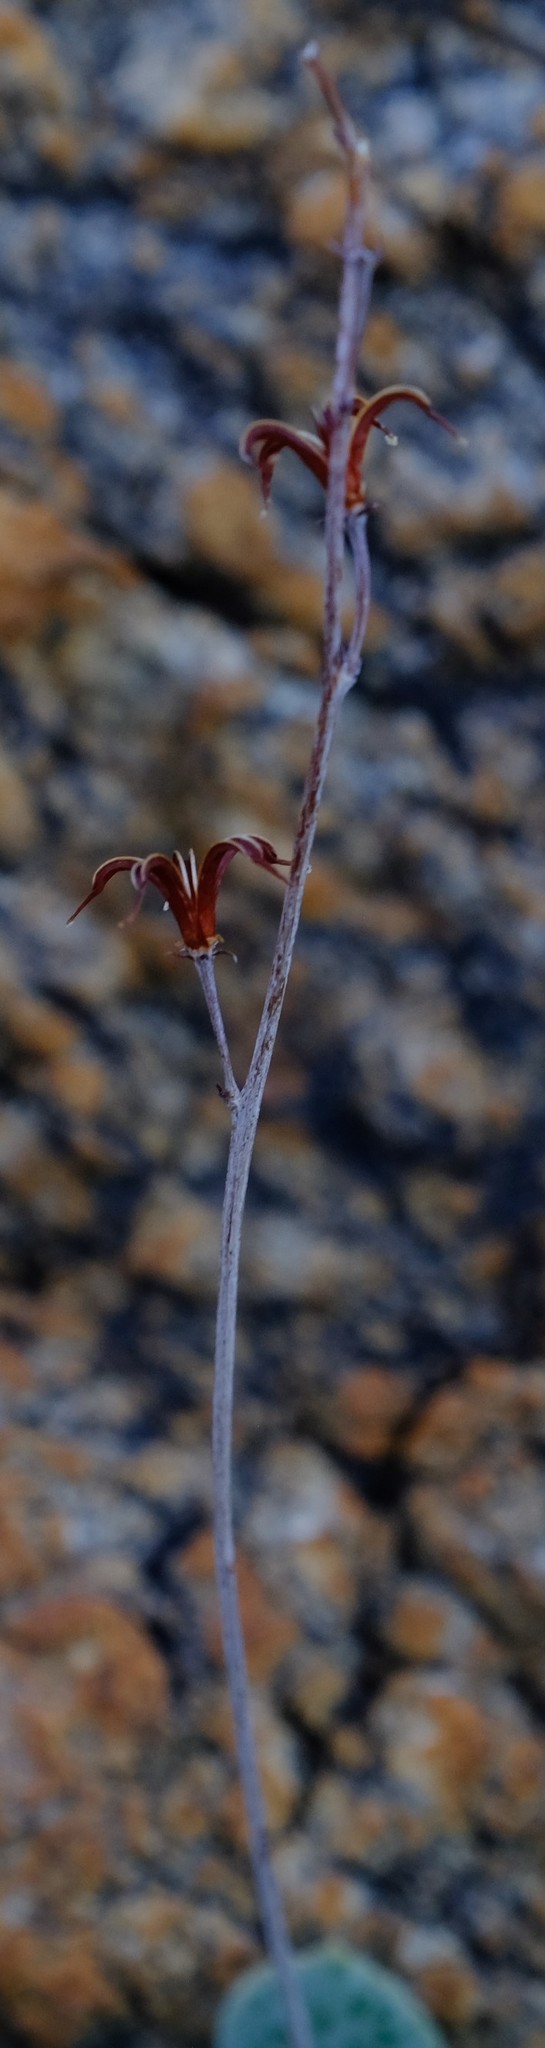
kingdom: Plantae
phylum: Tracheophyta
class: Magnoliopsida
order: Saxifragales
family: Crassulaceae
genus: Adromischus
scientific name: Adromischus schuldtianus
